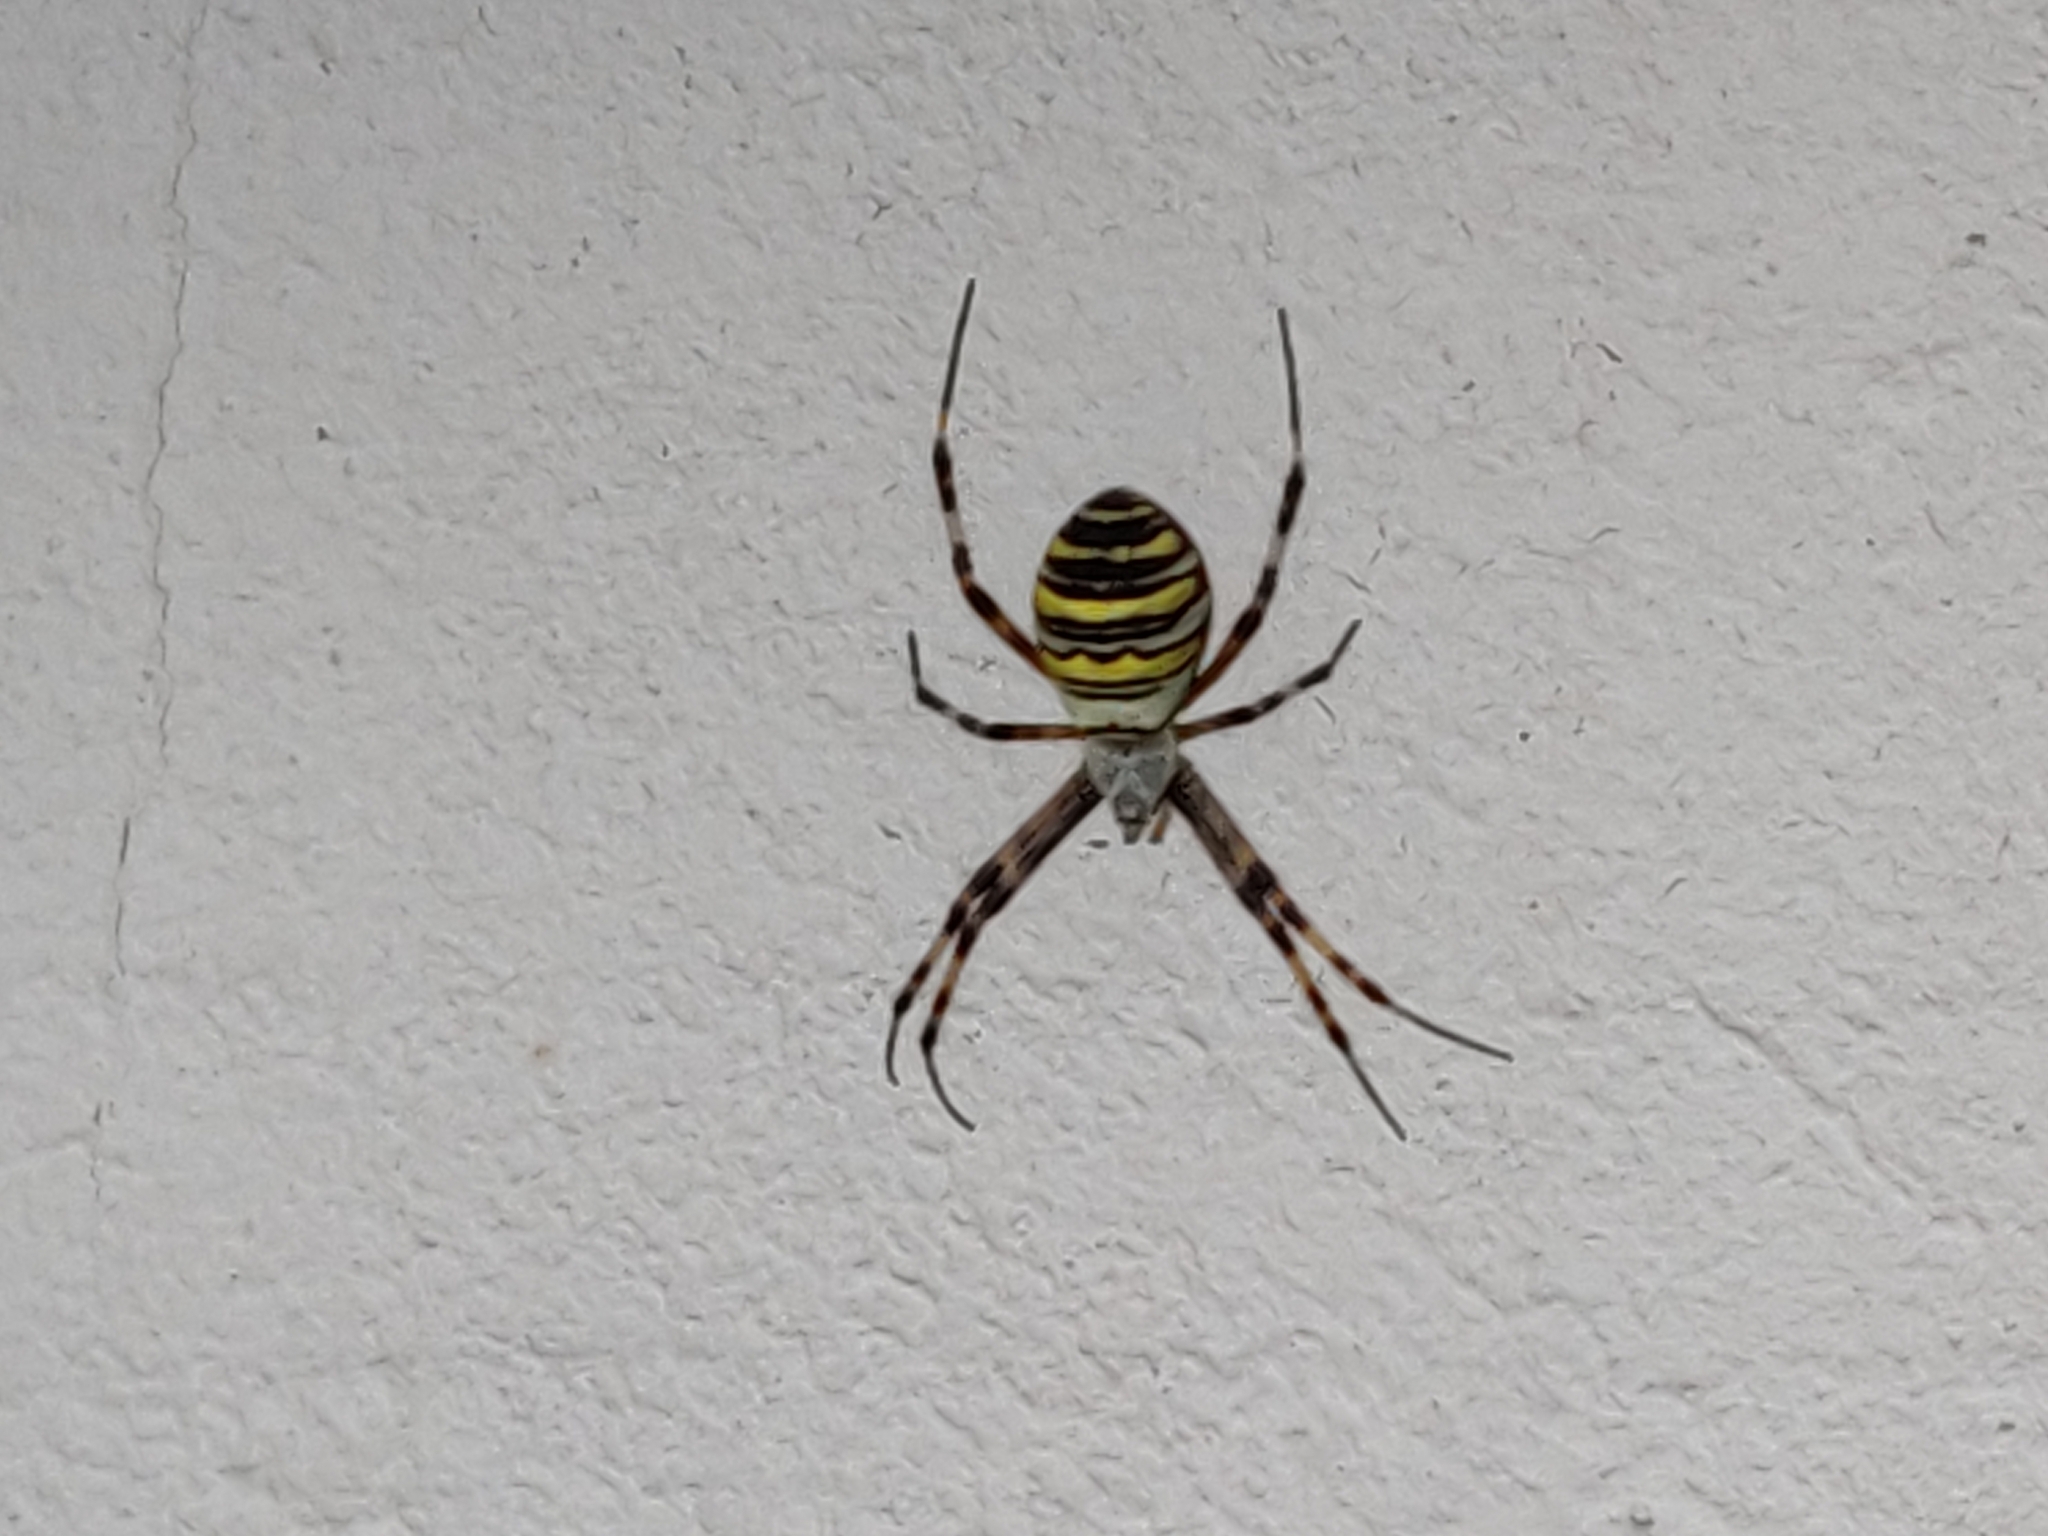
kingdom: Animalia
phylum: Arthropoda
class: Arachnida
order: Araneae
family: Araneidae
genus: Argiope
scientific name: Argiope bruennichi
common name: Wasp spider
